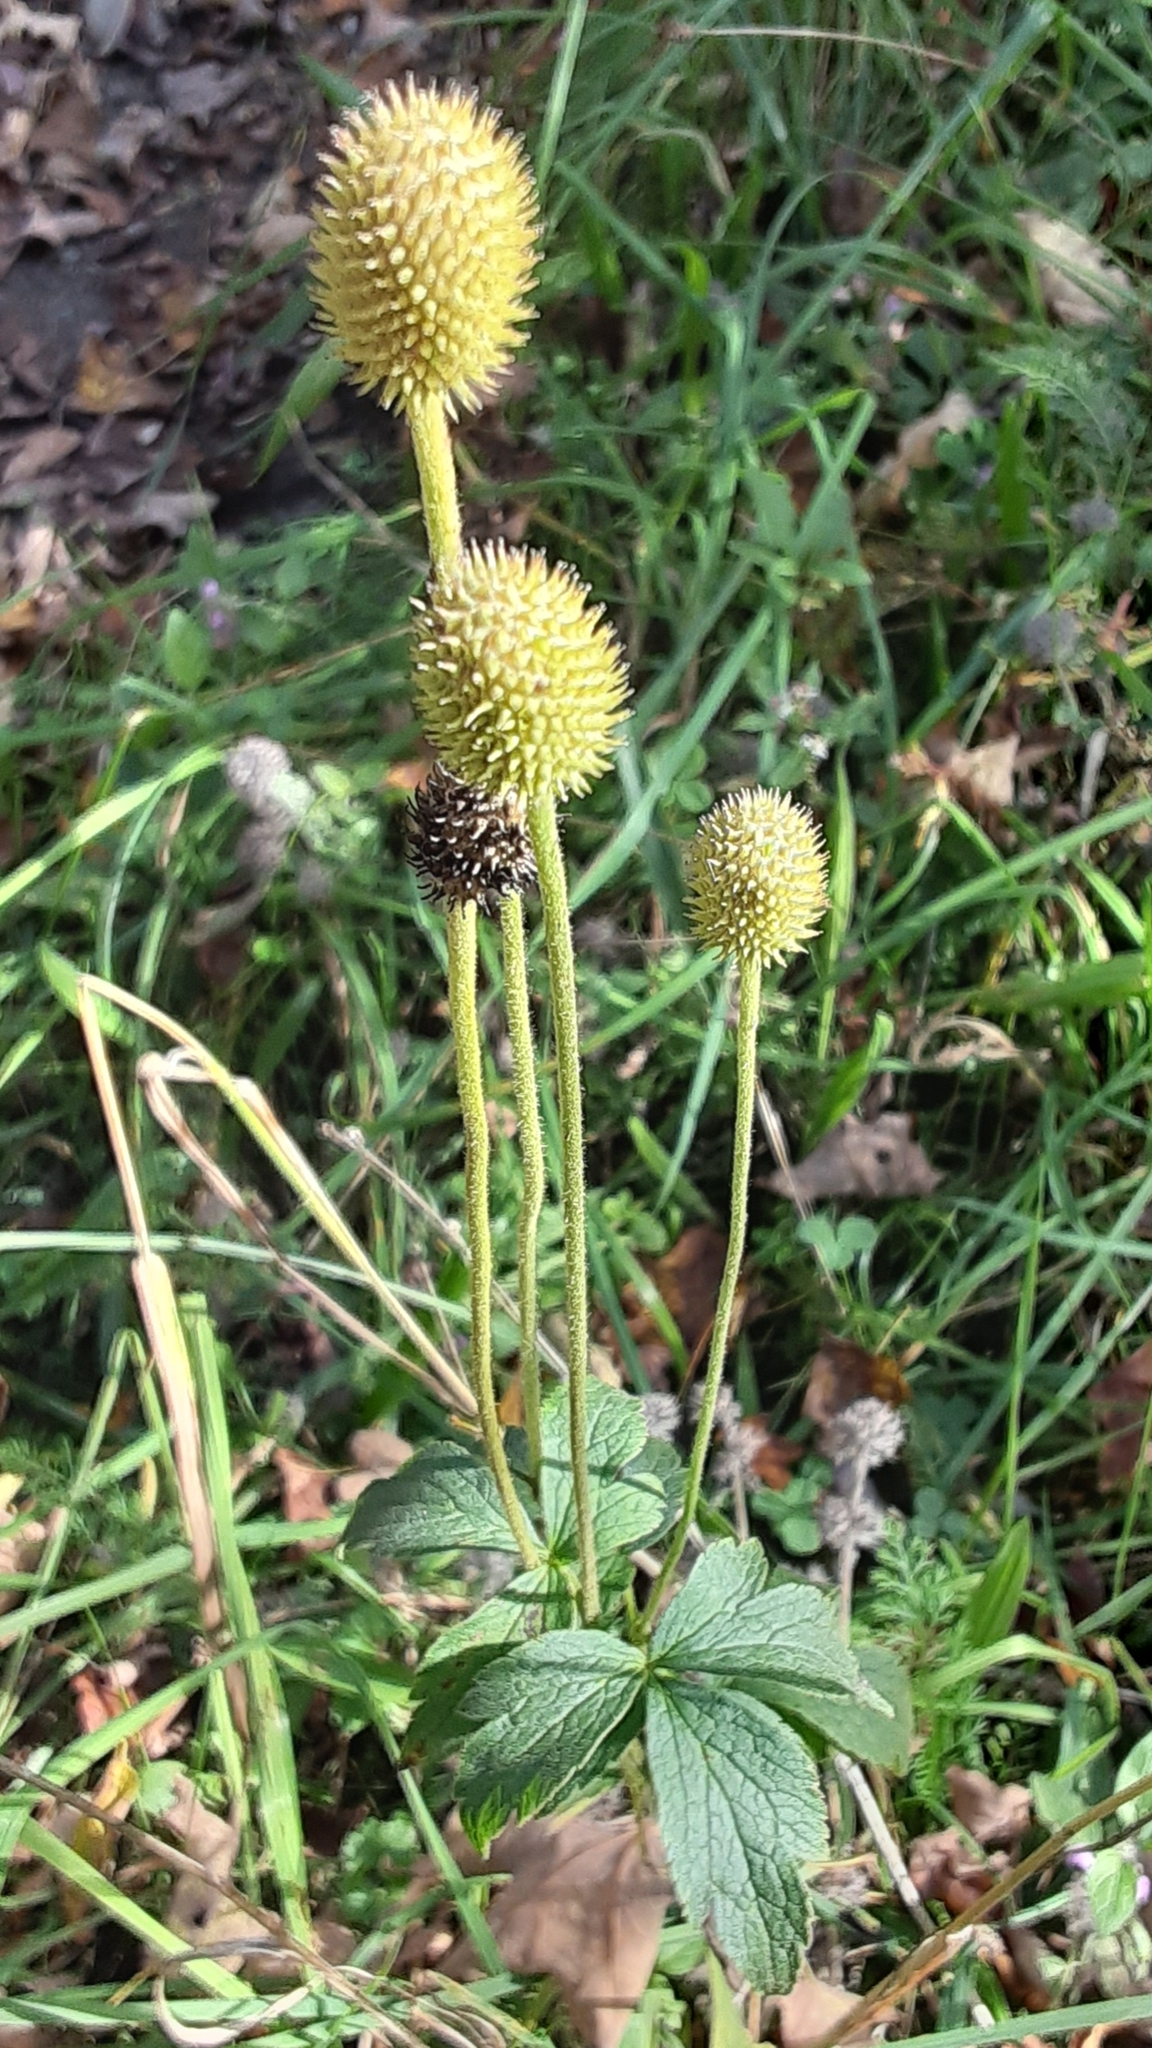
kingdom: Plantae
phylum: Tracheophyta
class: Magnoliopsida
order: Ranunculales
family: Ranunculaceae
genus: Anemone
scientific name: Anemone virginiana
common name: Tall anemone
